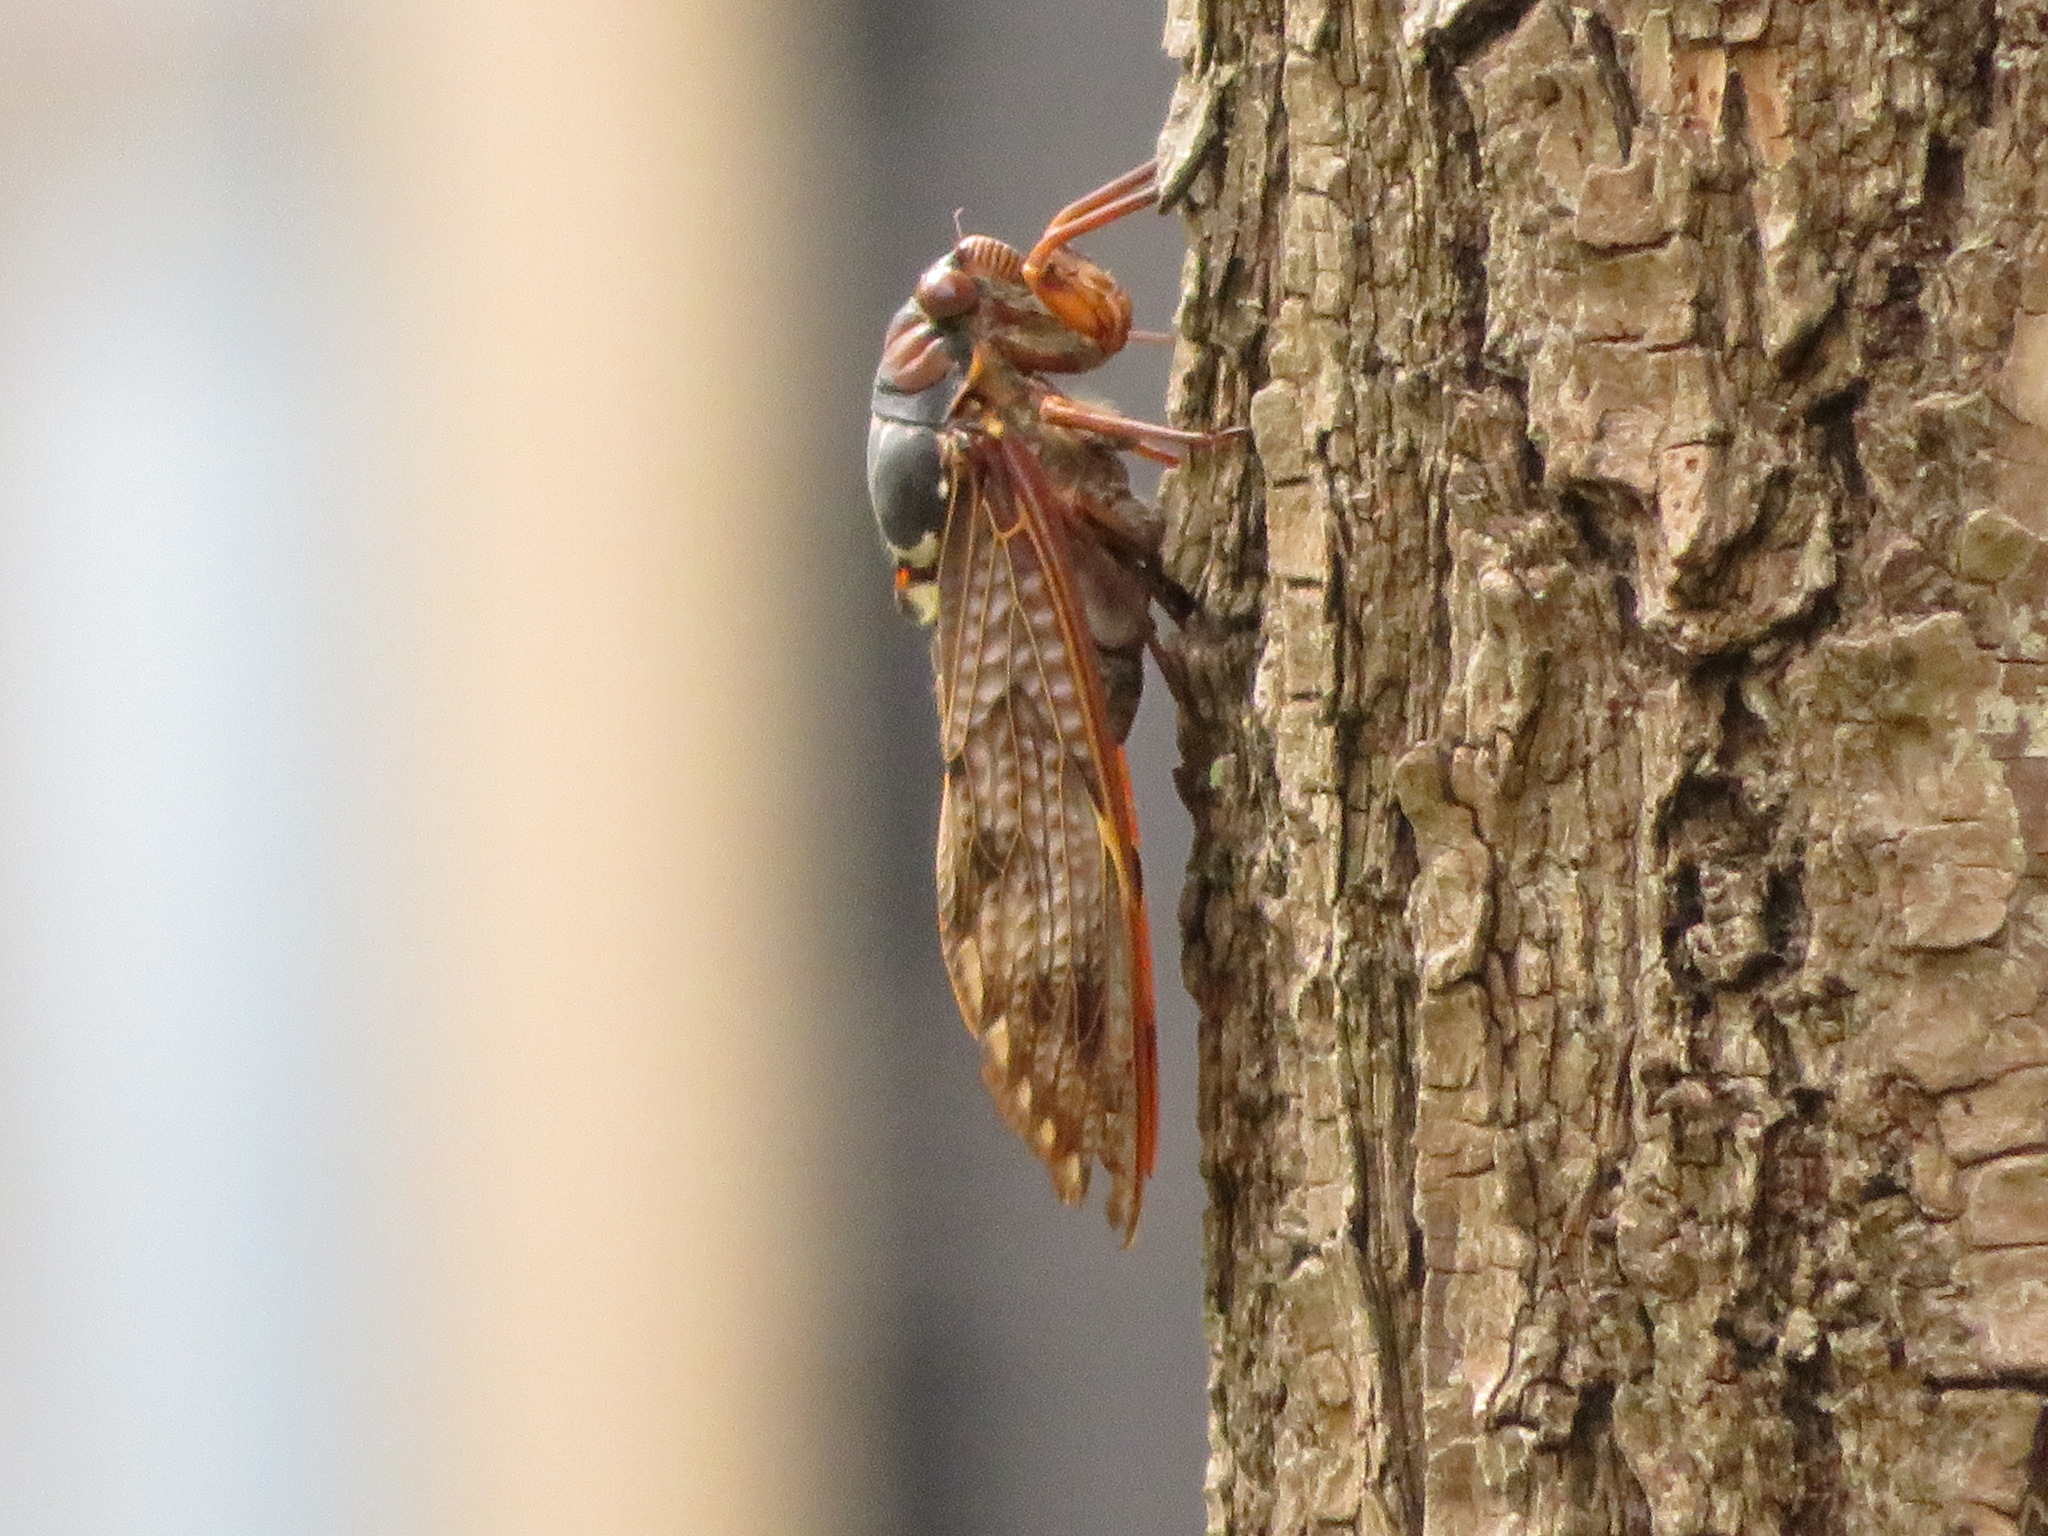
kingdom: Animalia
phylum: Arthropoda
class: Insecta
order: Hemiptera
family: Cicadidae
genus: Graptopsaltria
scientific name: Graptopsaltria nigrofuscata
